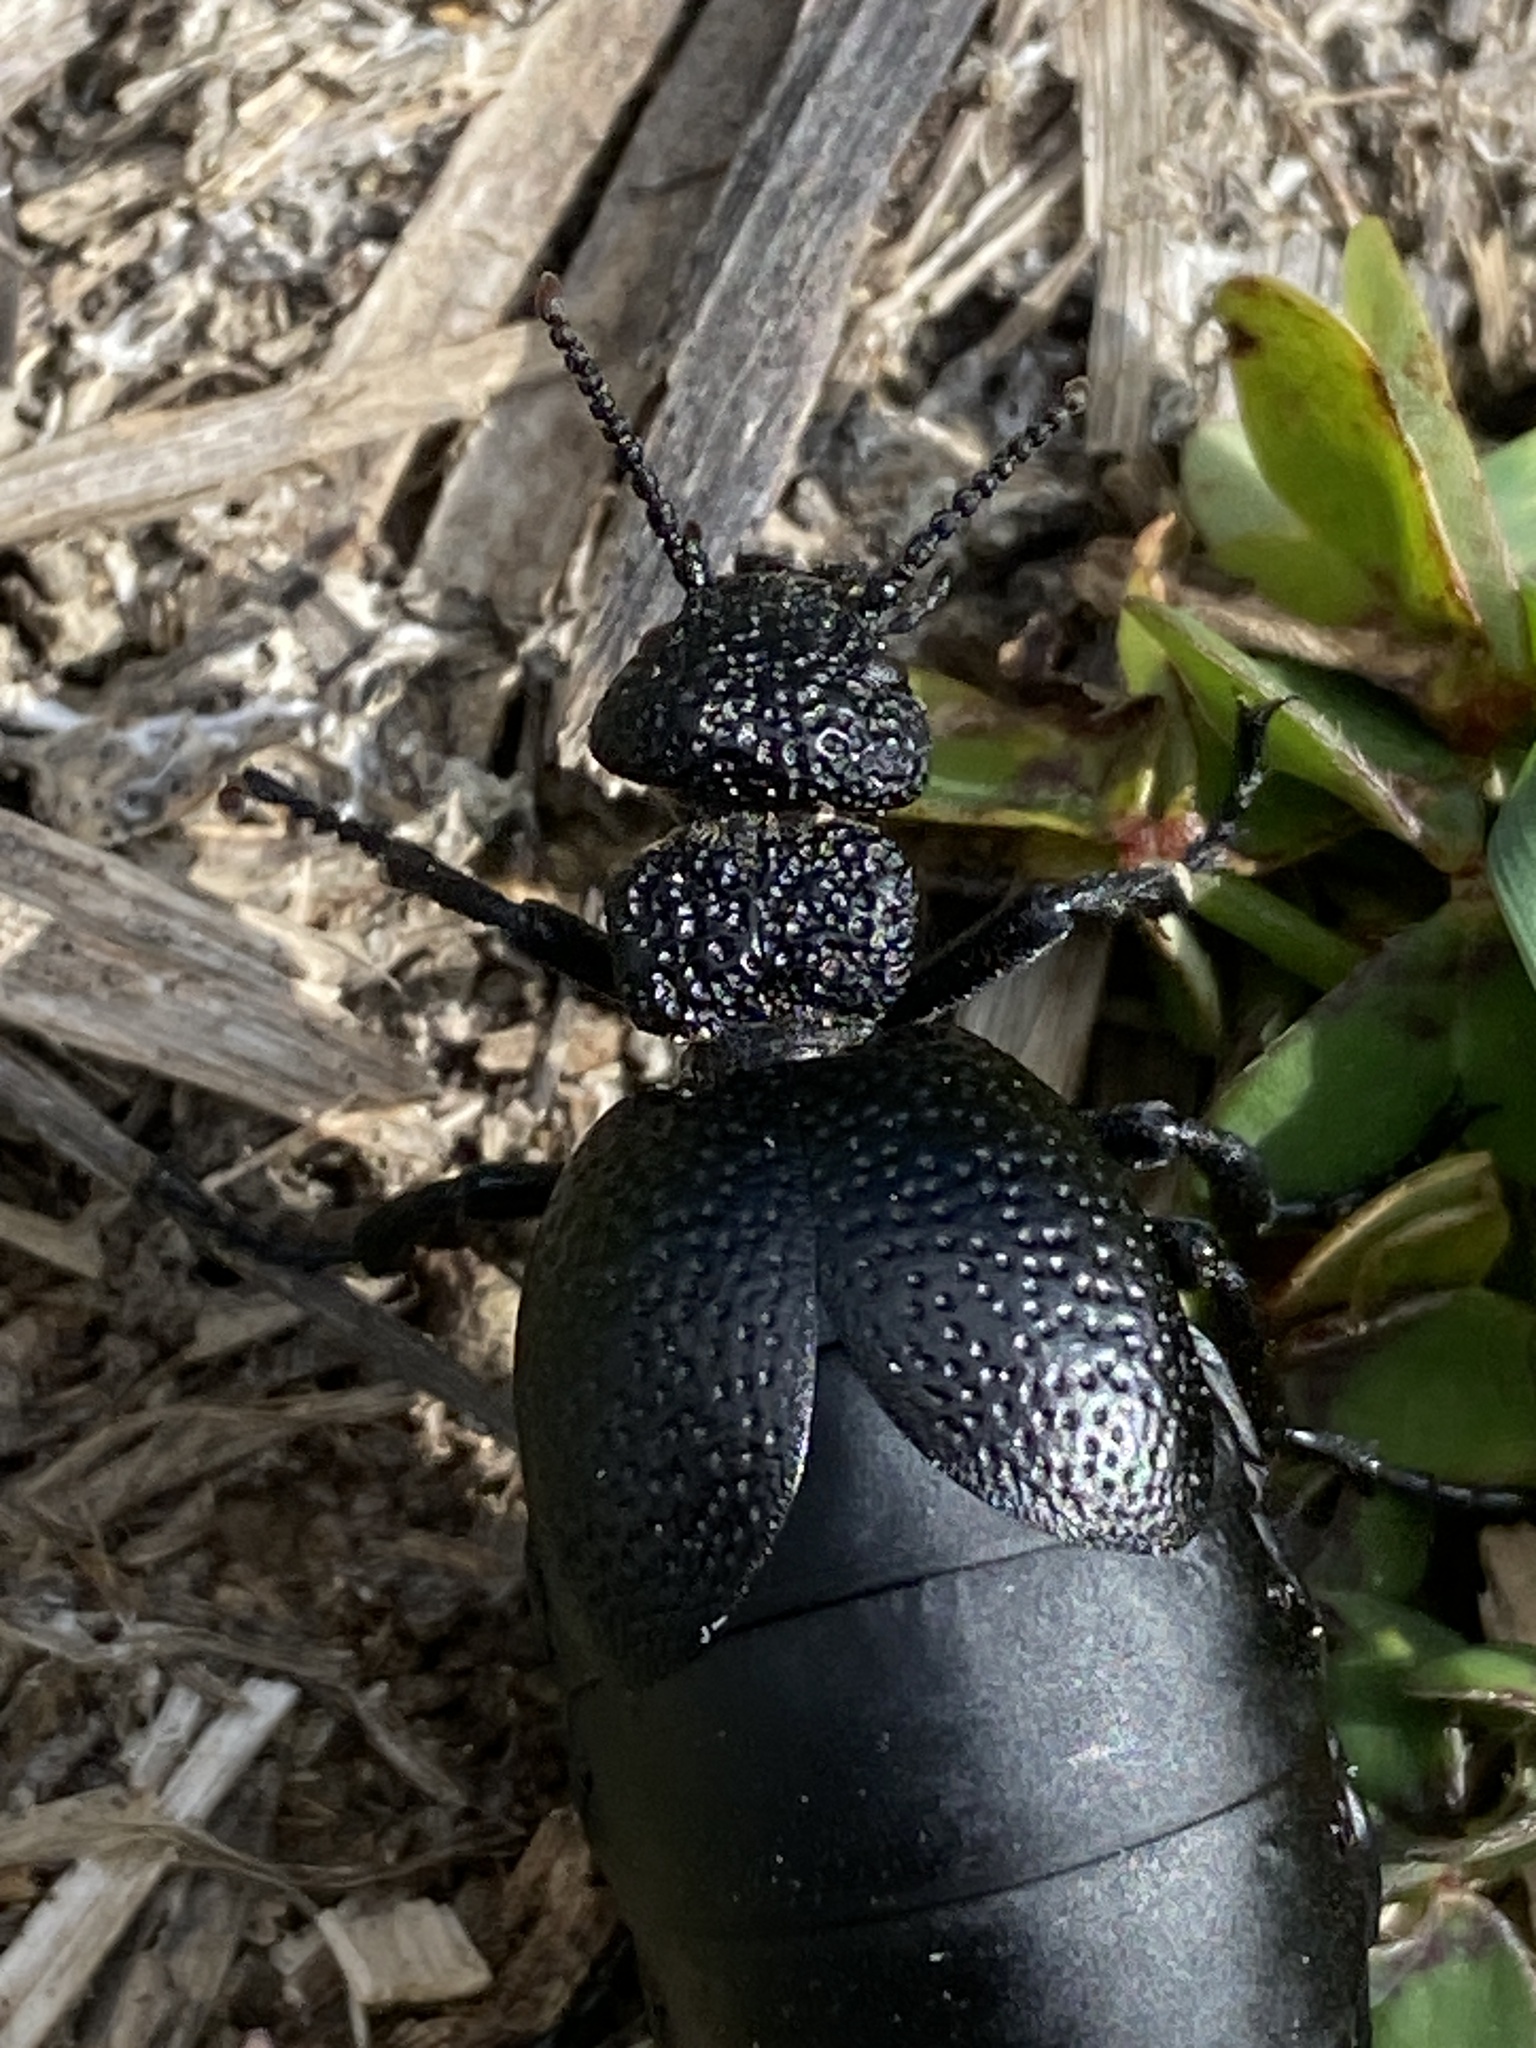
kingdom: Animalia
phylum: Arthropoda
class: Insecta
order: Coleoptera
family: Meloidae
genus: Meloe
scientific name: Meloe tuccius
